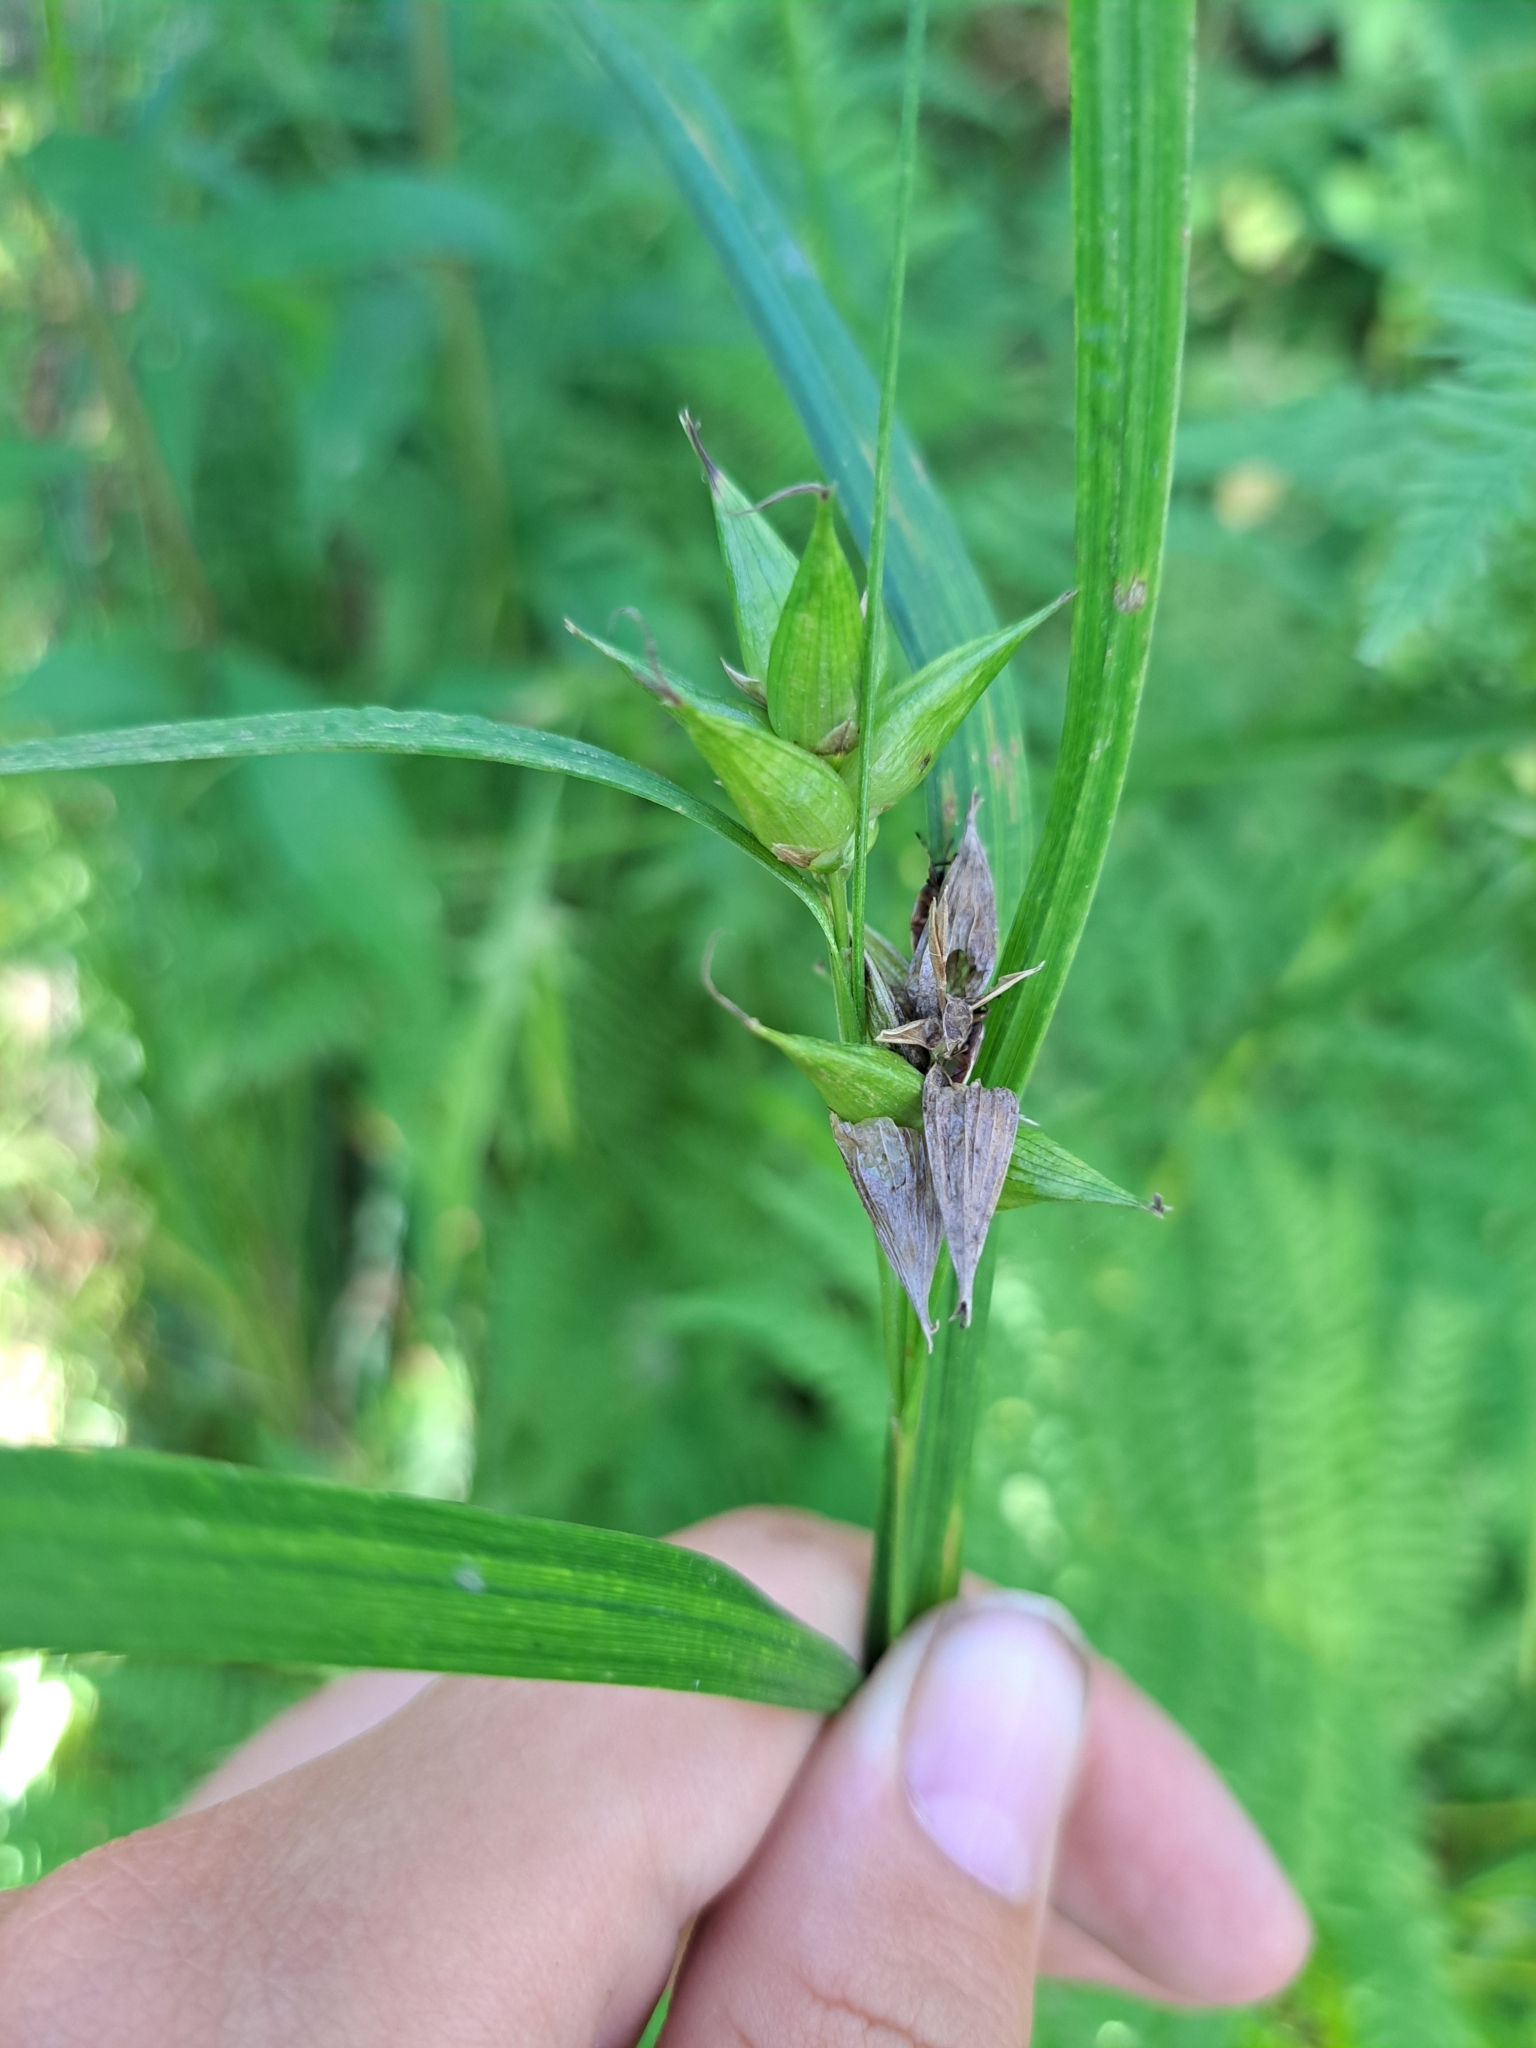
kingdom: Plantae
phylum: Tracheophyta
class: Liliopsida
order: Poales
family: Cyperaceae
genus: Carex
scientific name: Carex intumescens
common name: Greater bladder sedge
